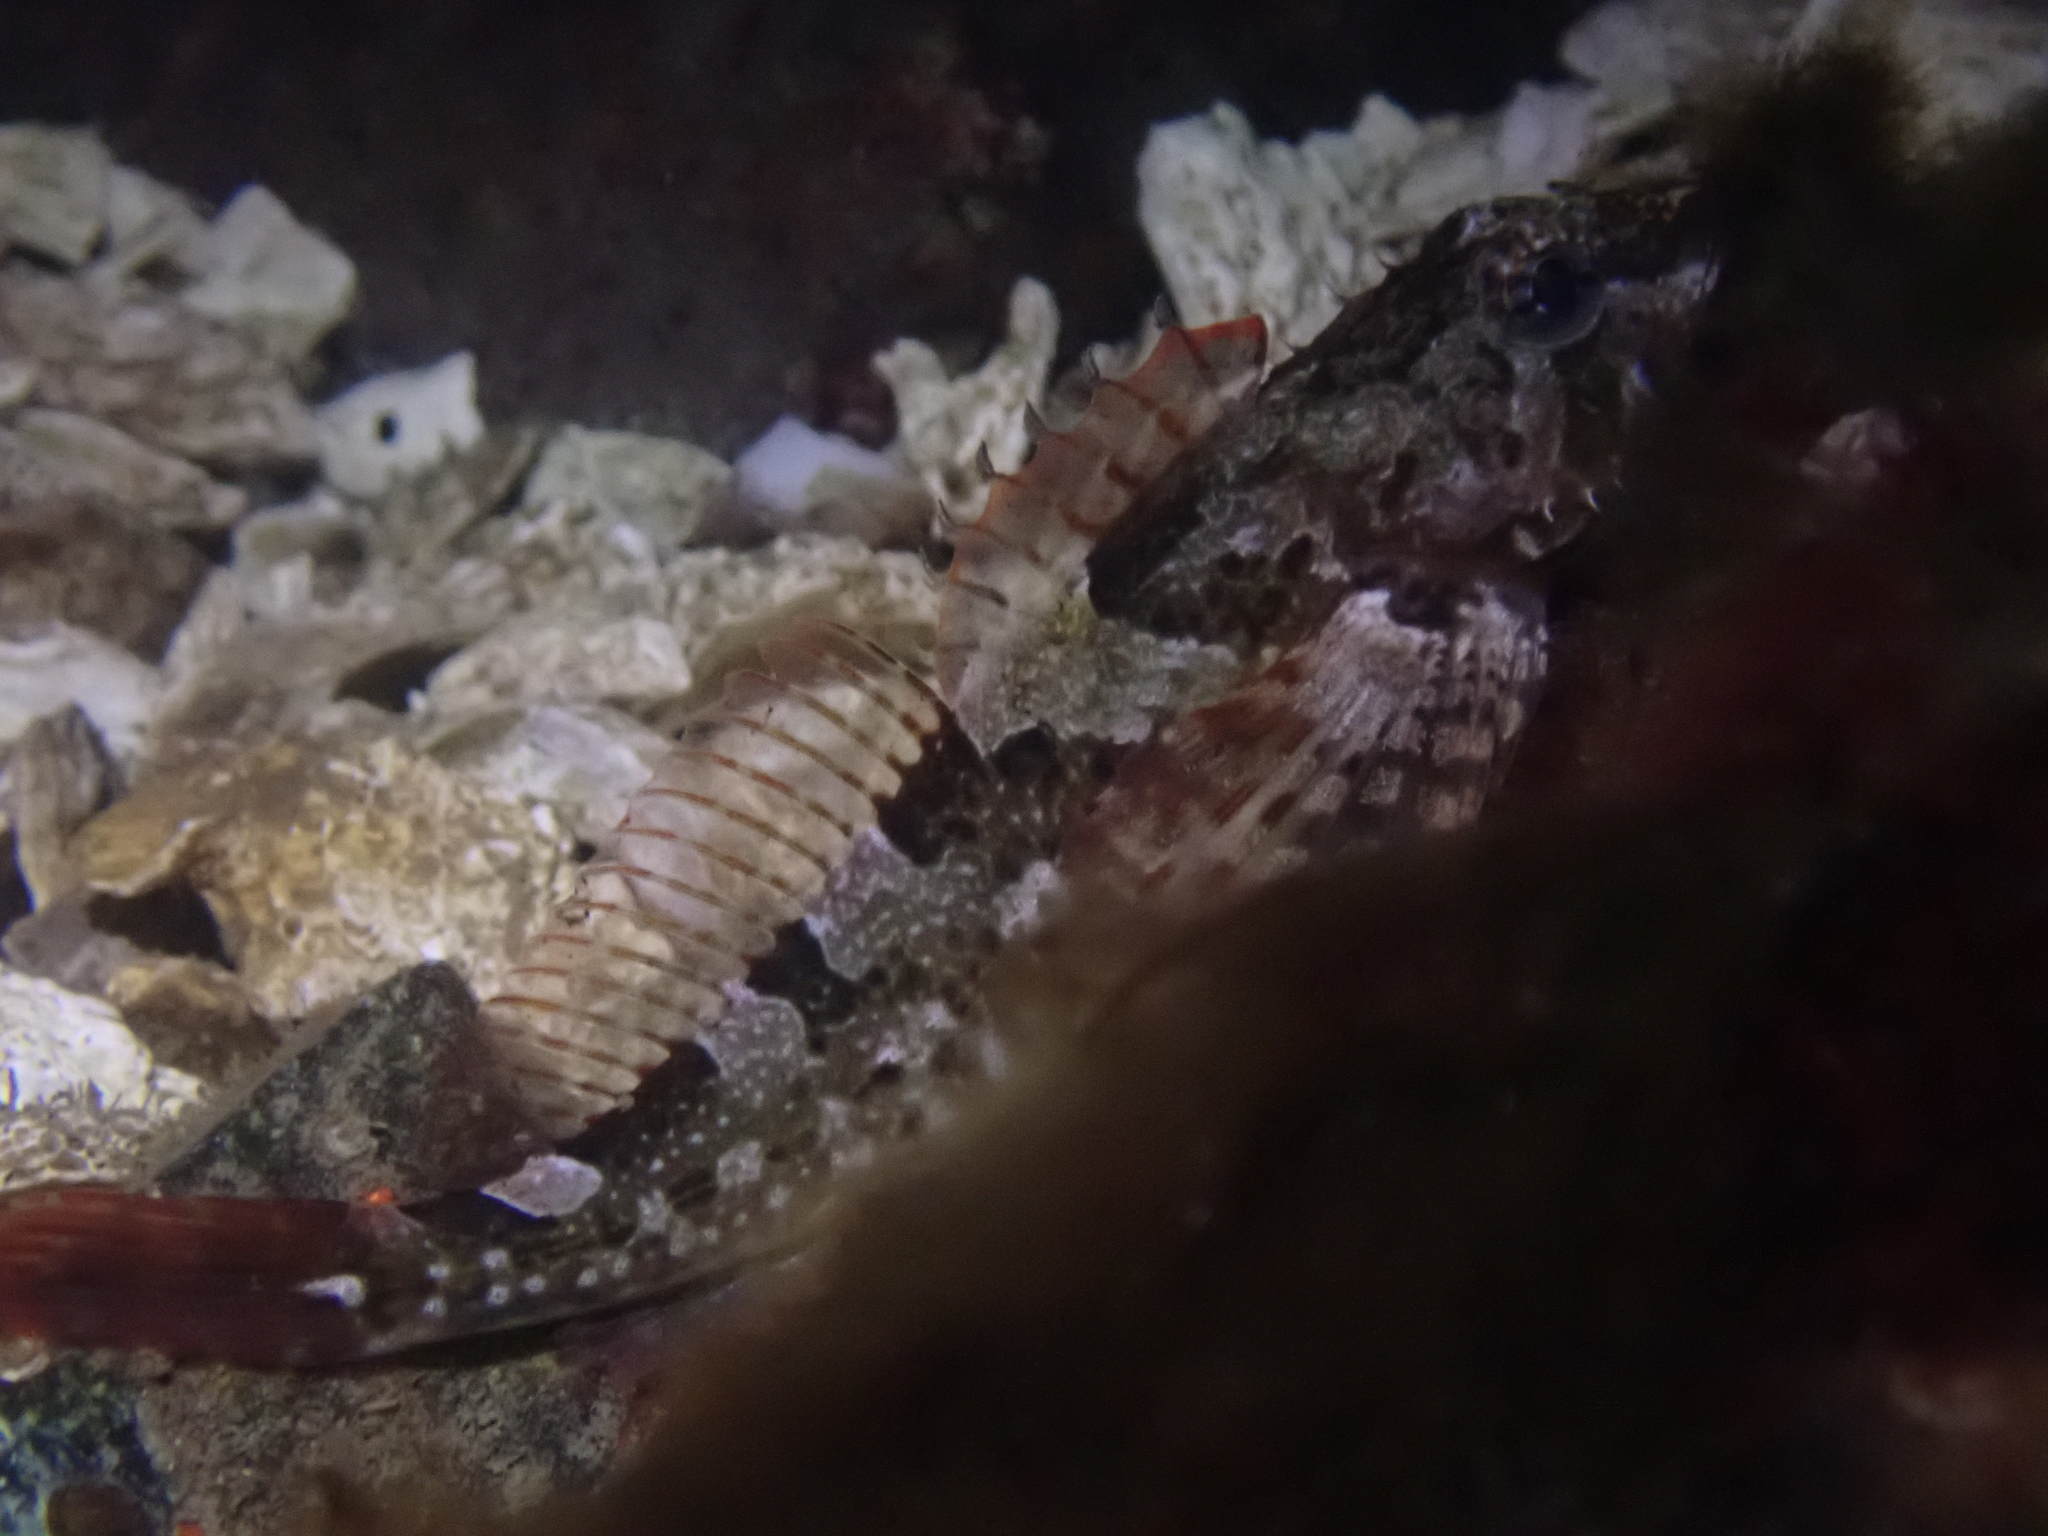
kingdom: Animalia
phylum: Chordata
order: Scorpaeniformes
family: Cottidae
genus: Oligocottus
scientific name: Oligocottus maculosus
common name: Tidepool sculpin
